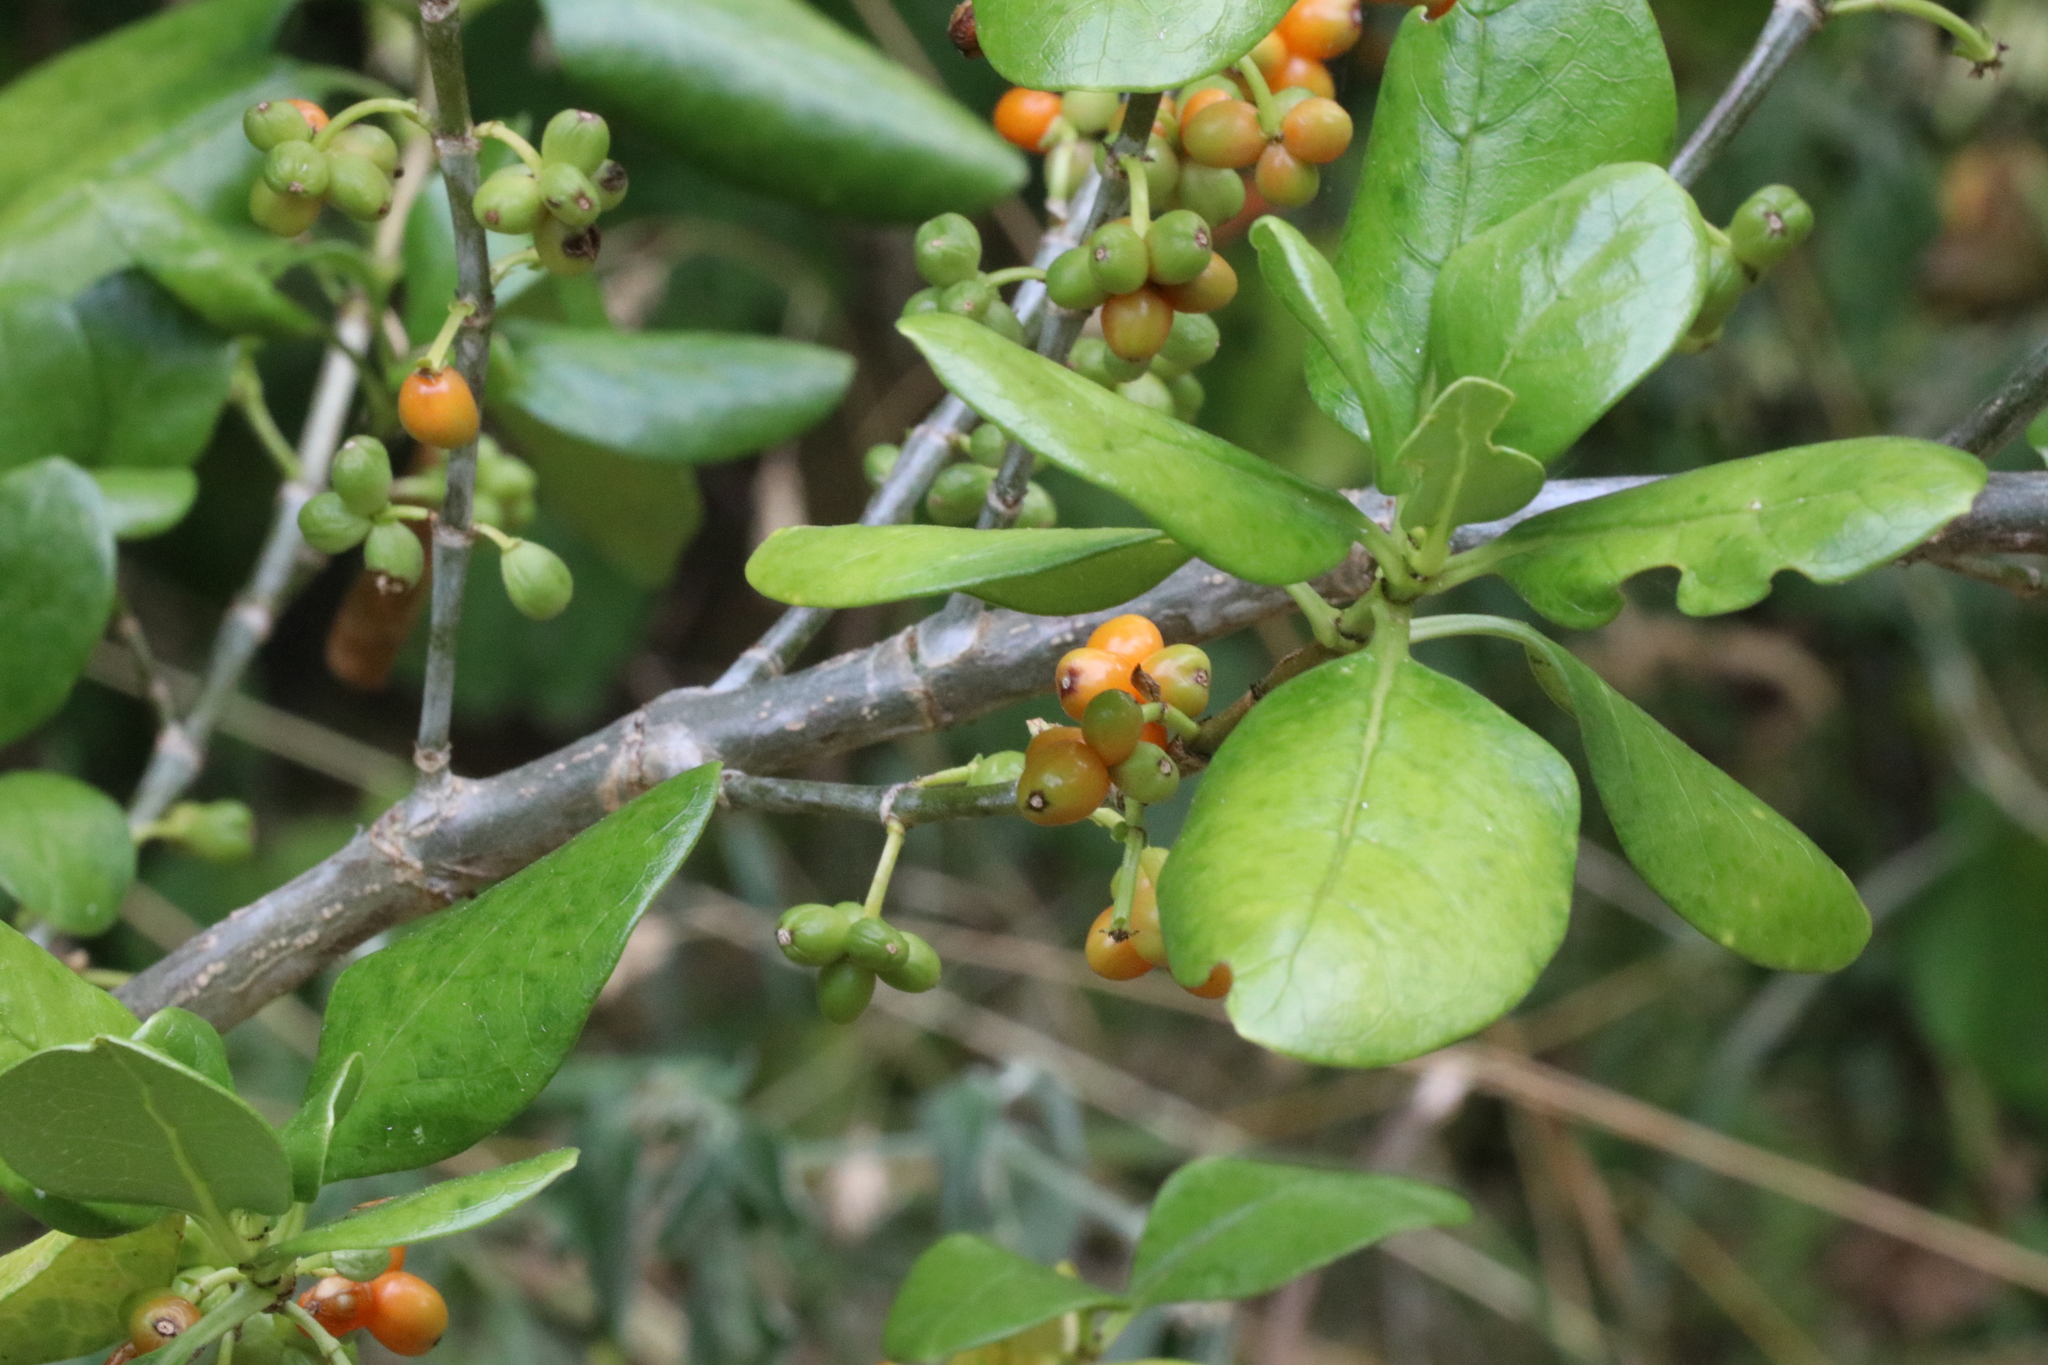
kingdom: Plantae
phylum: Tracheophyta
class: Magnoliopsida
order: Gentianales
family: Rubiaceae
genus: Coprosma
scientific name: Coprosma repens
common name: Tree bedstraw
